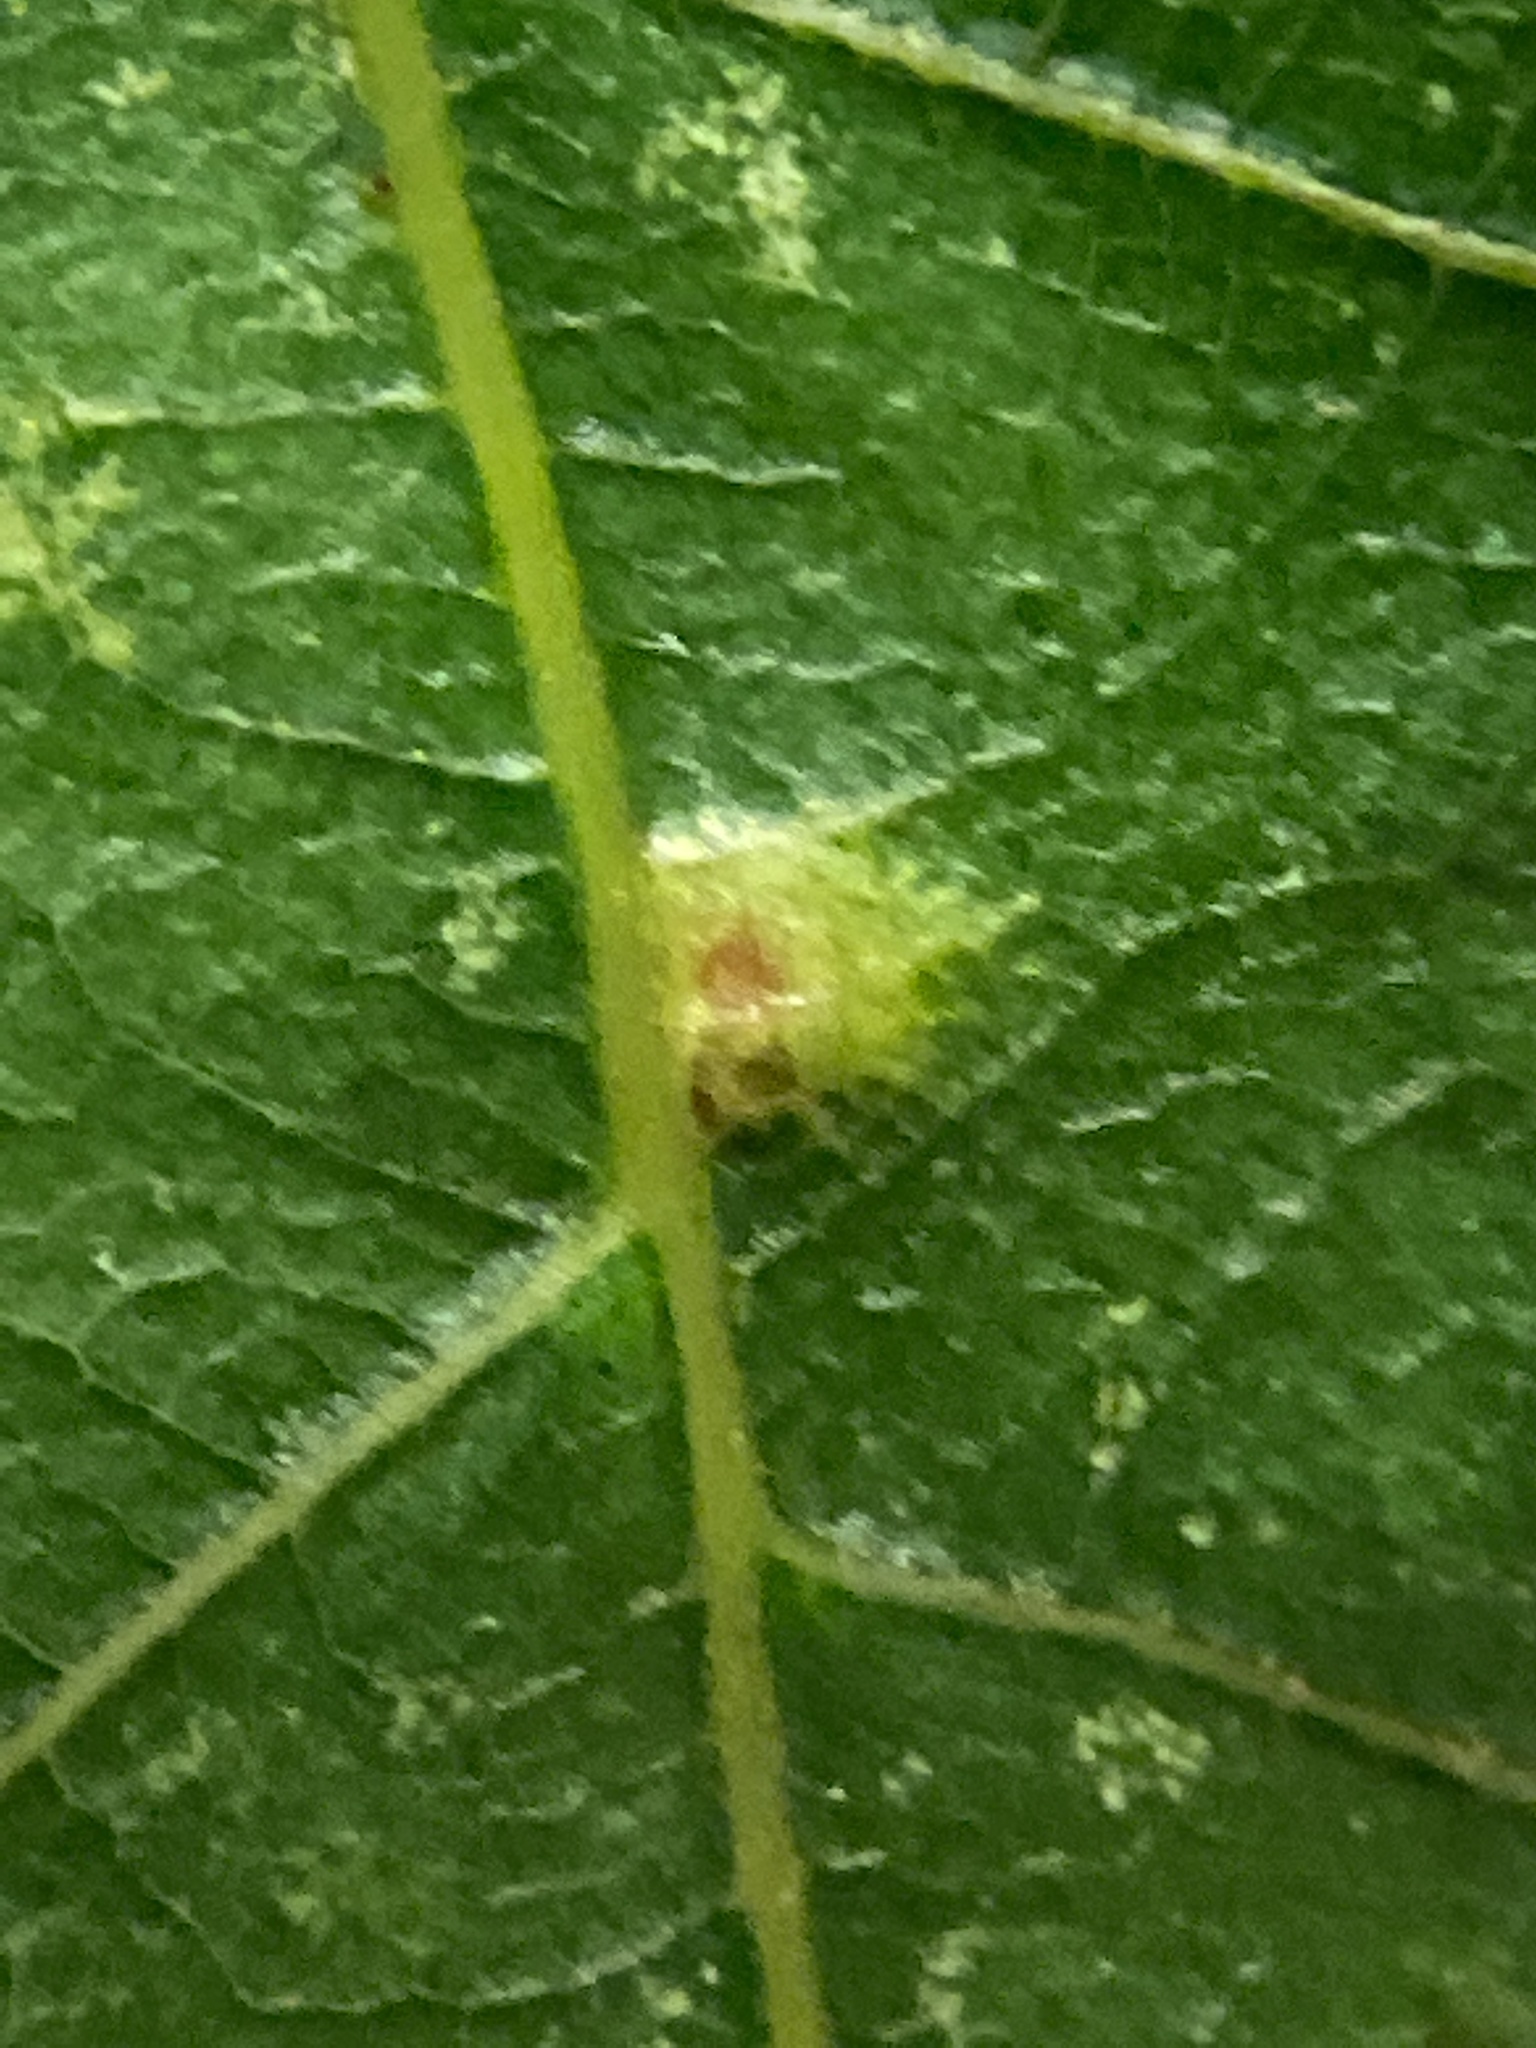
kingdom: Animalia
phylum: Arthropoda
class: Insecta
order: Diptera
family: Cecidomyiidae
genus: Caryomyia
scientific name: Caryomyia purpurea
